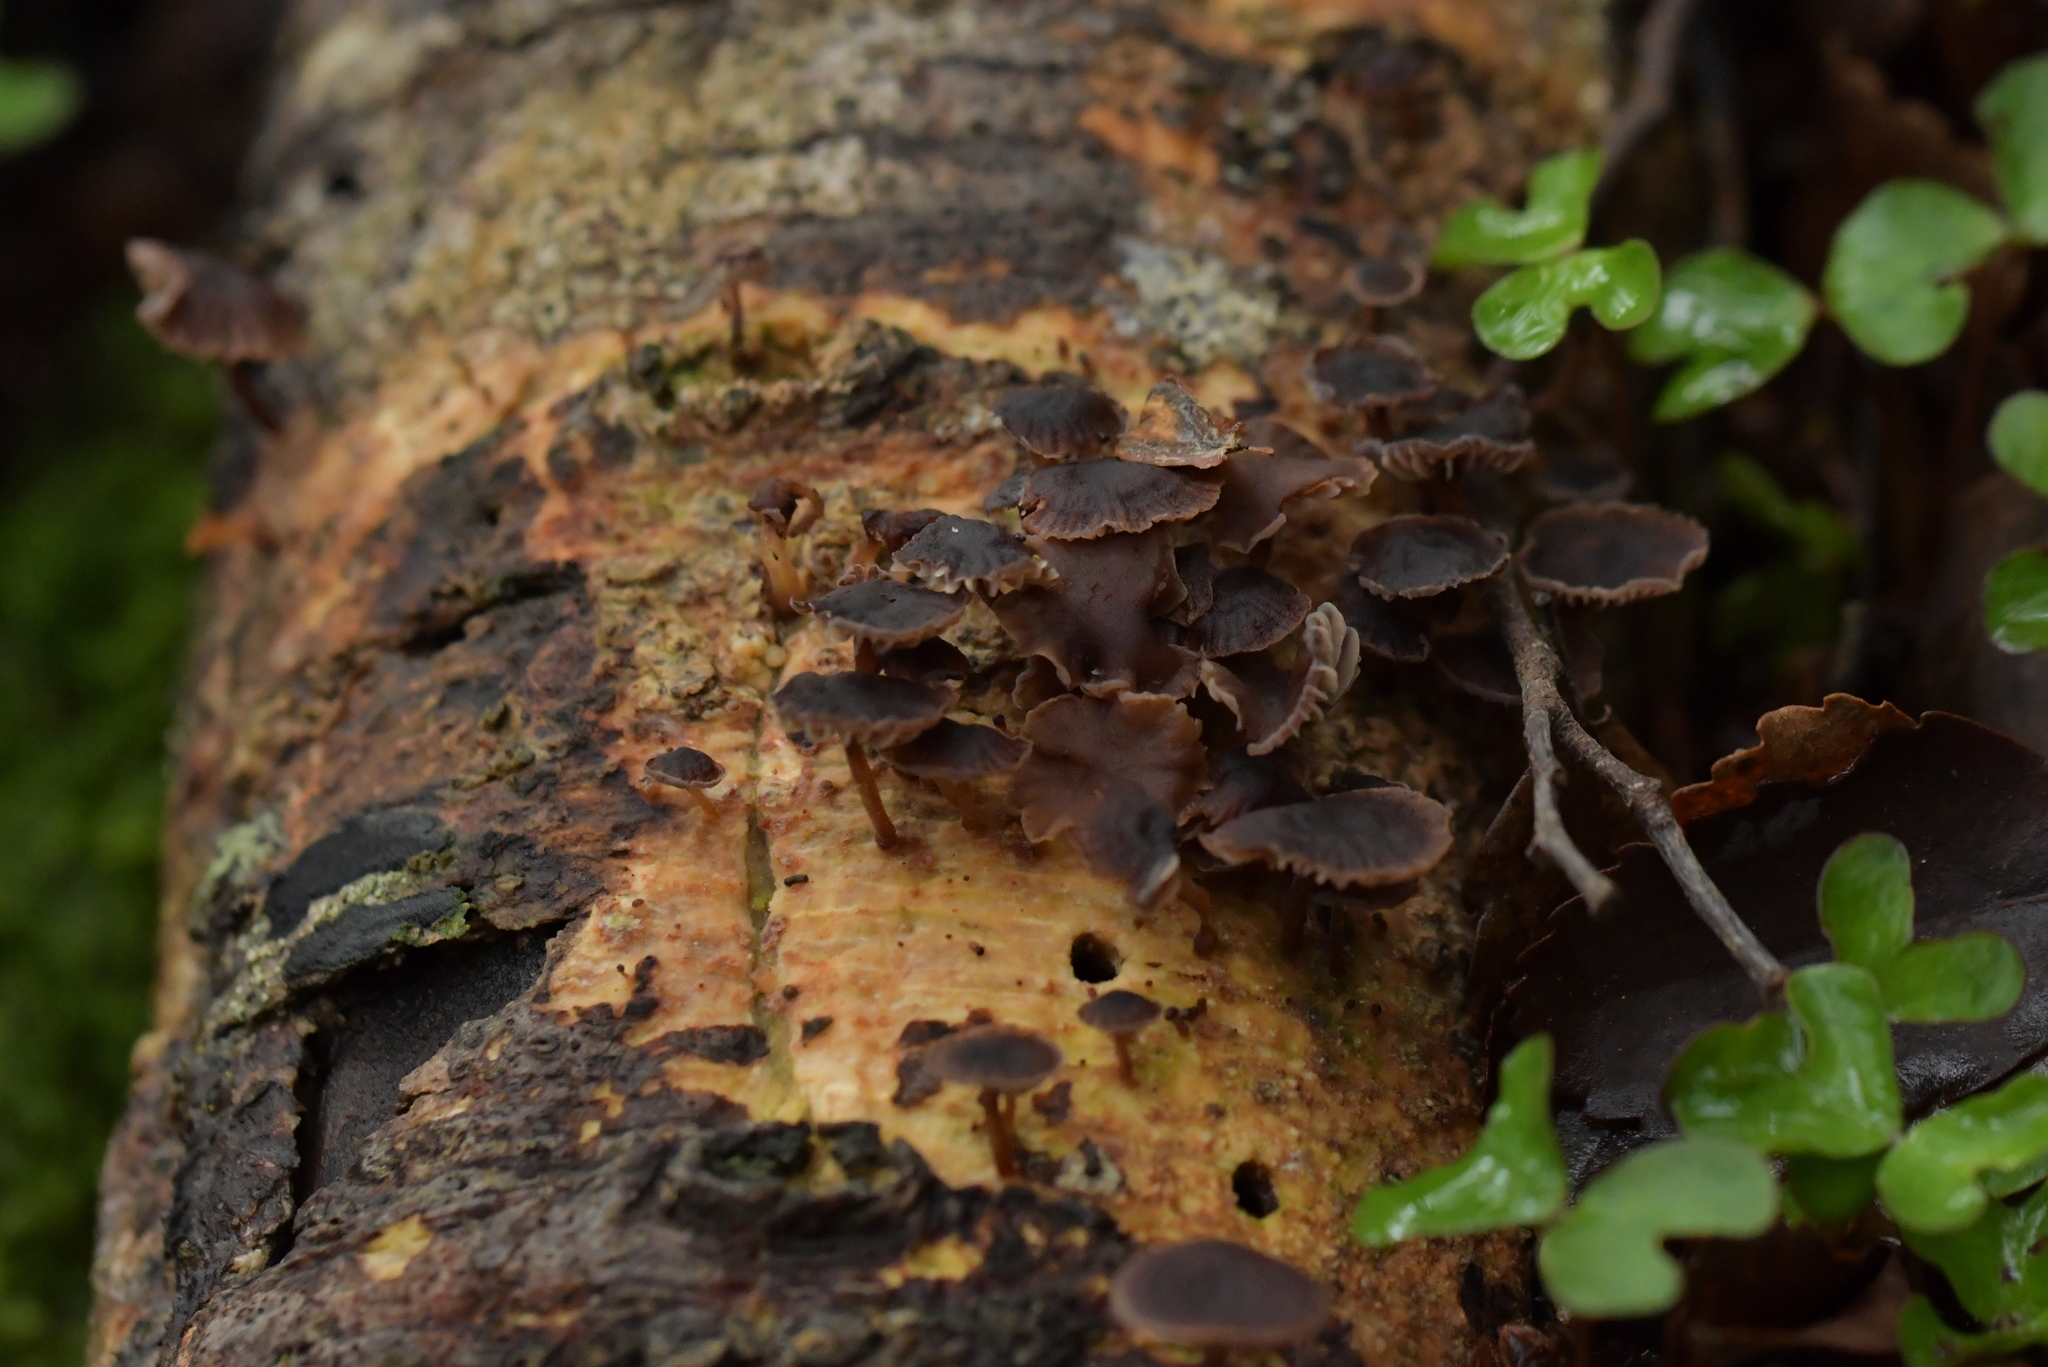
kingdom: Fungi
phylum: Basidiomycota
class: Agaricomycetes
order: Agaricales
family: Omphalotaceae
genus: Gymnopus
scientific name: Gymnopus ceraceicola
